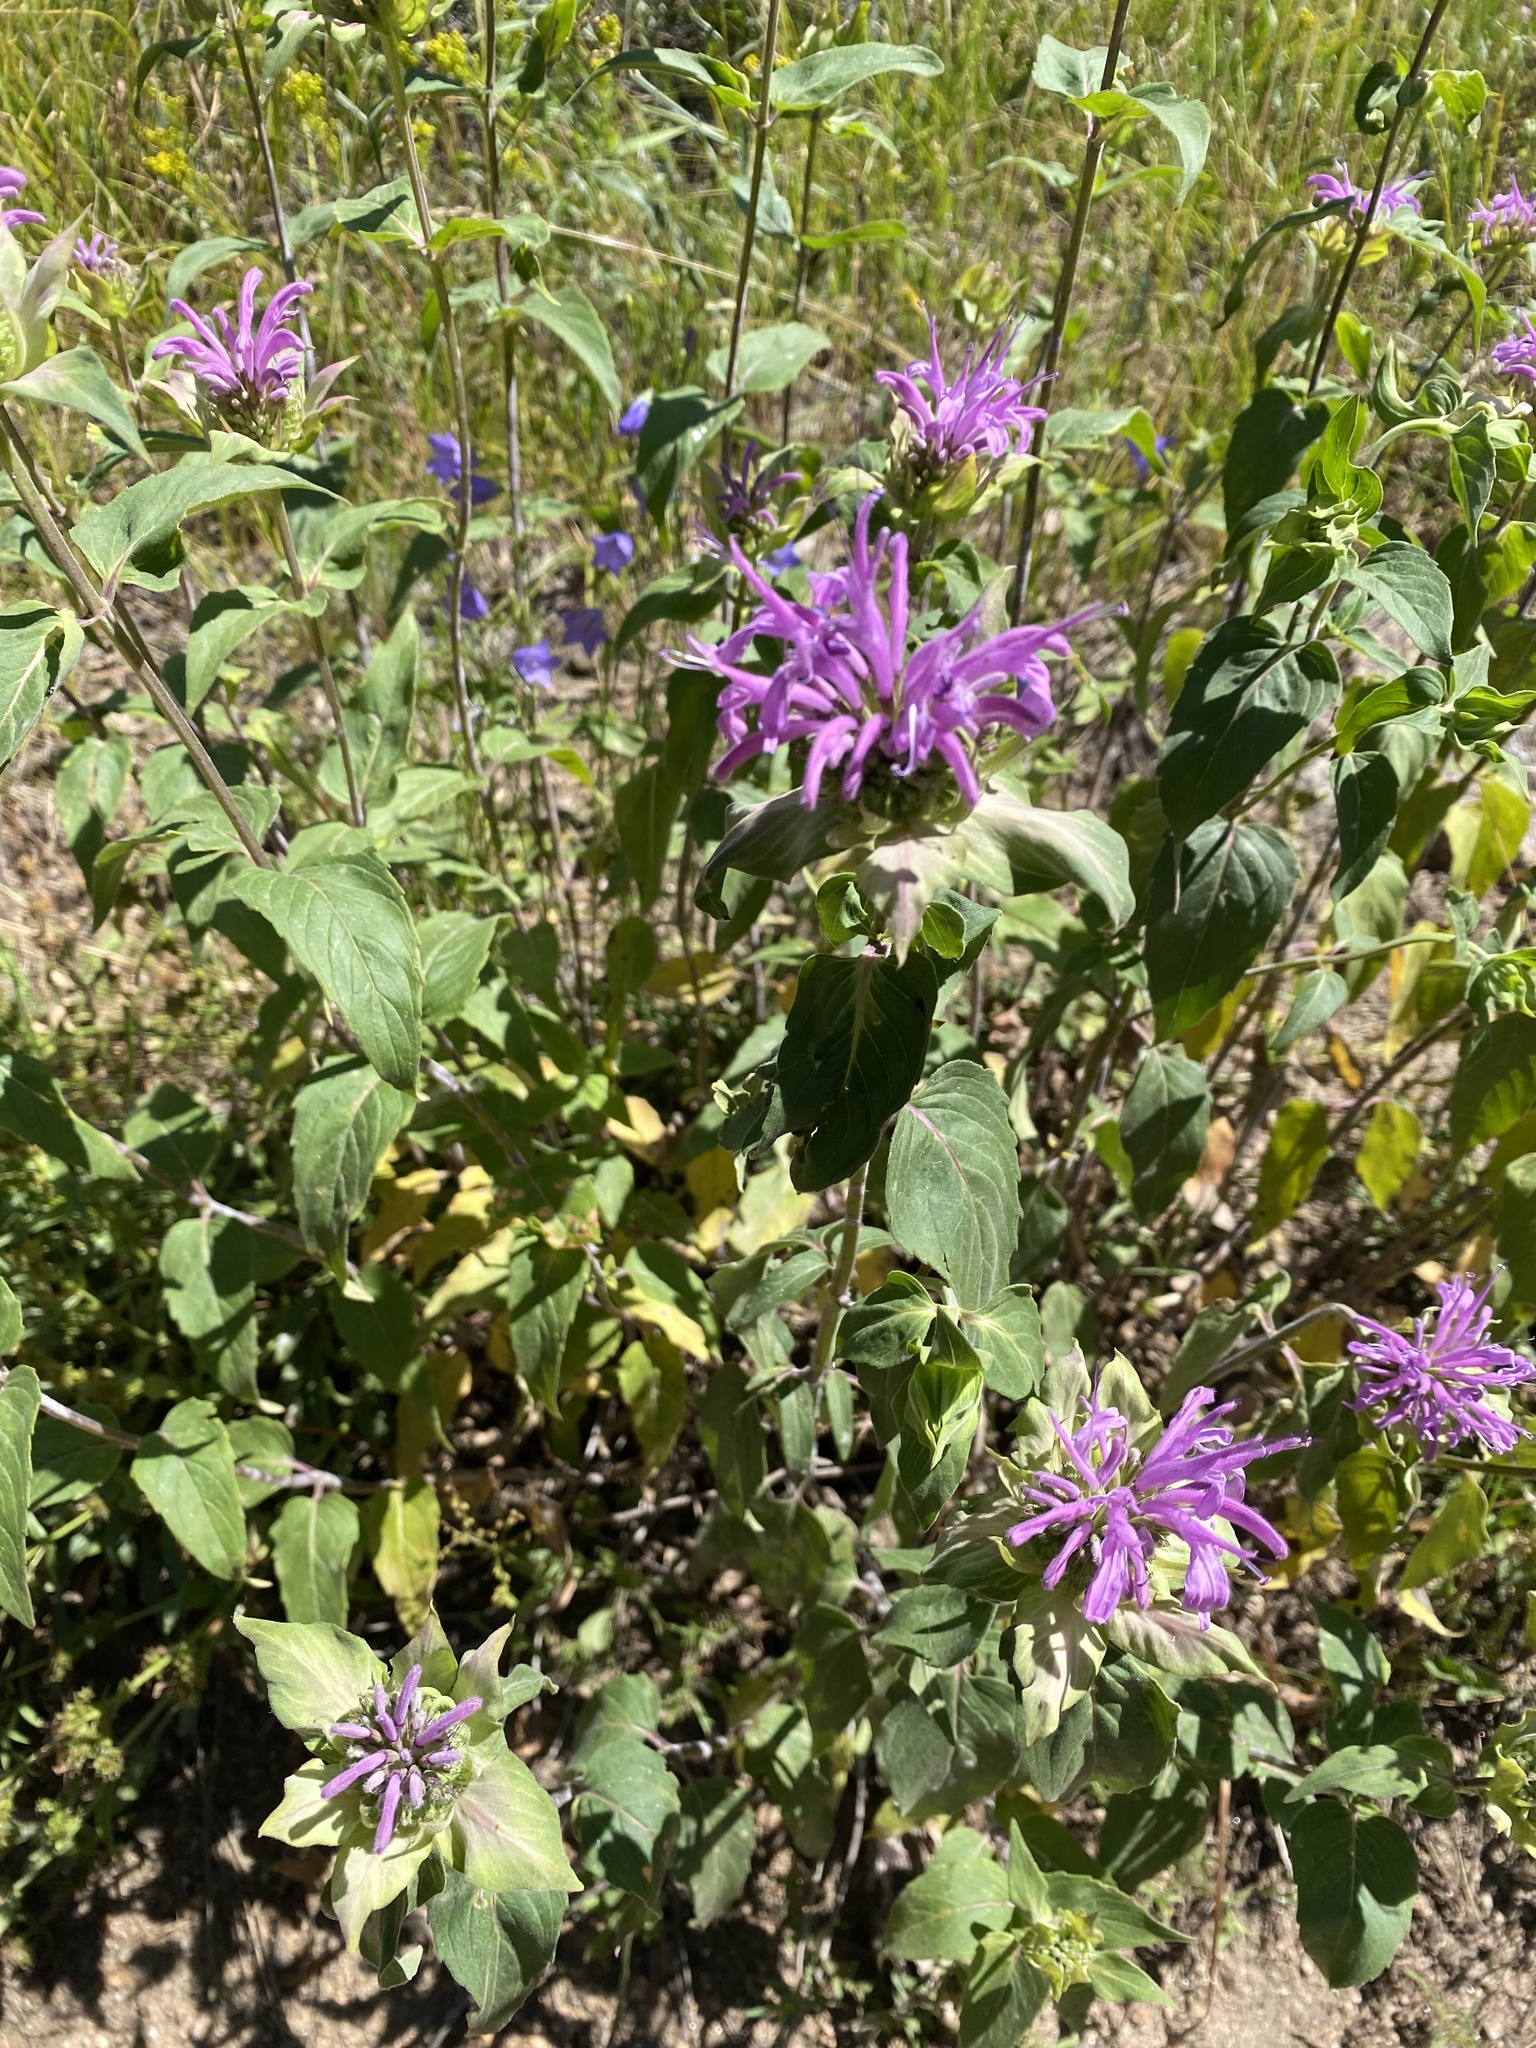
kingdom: Plantae
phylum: Tracheophyta
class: Magnoliopsida
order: Lamiales
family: Lamiaceae
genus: Monarda
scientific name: Monarda fistulosa
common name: Purple beebalm
